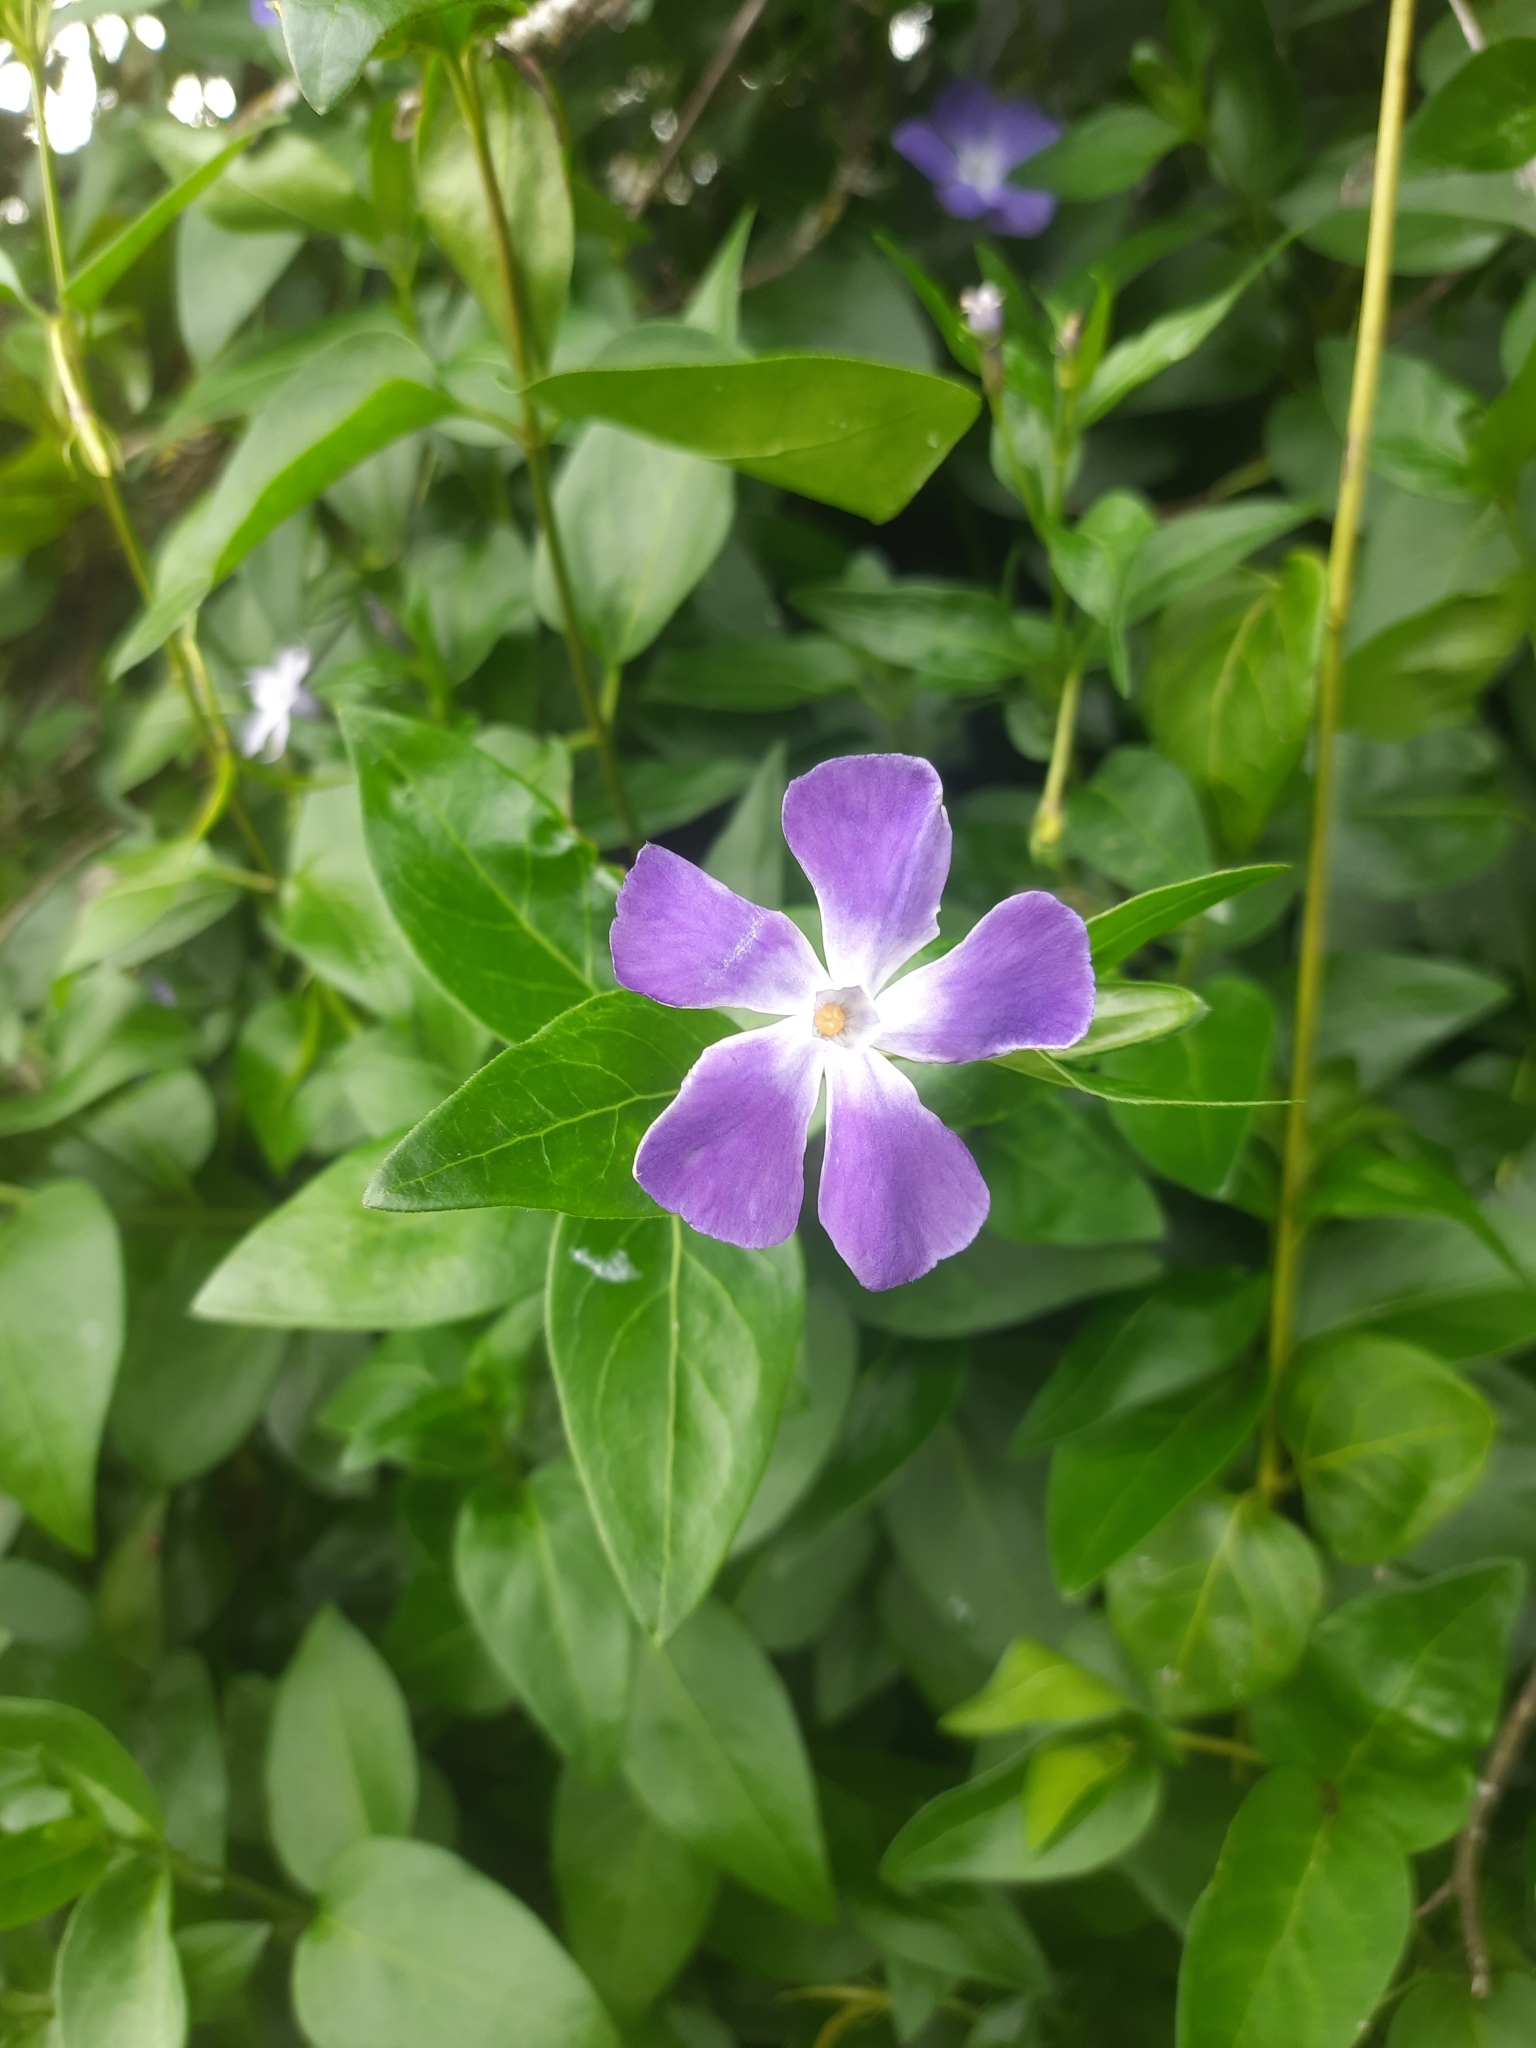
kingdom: Plantae
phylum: Tracheophyta
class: Magnoliopsida
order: Gentianales
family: Apocynaceae
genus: Vinca
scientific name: Vinca major
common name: Greater periwinkle
